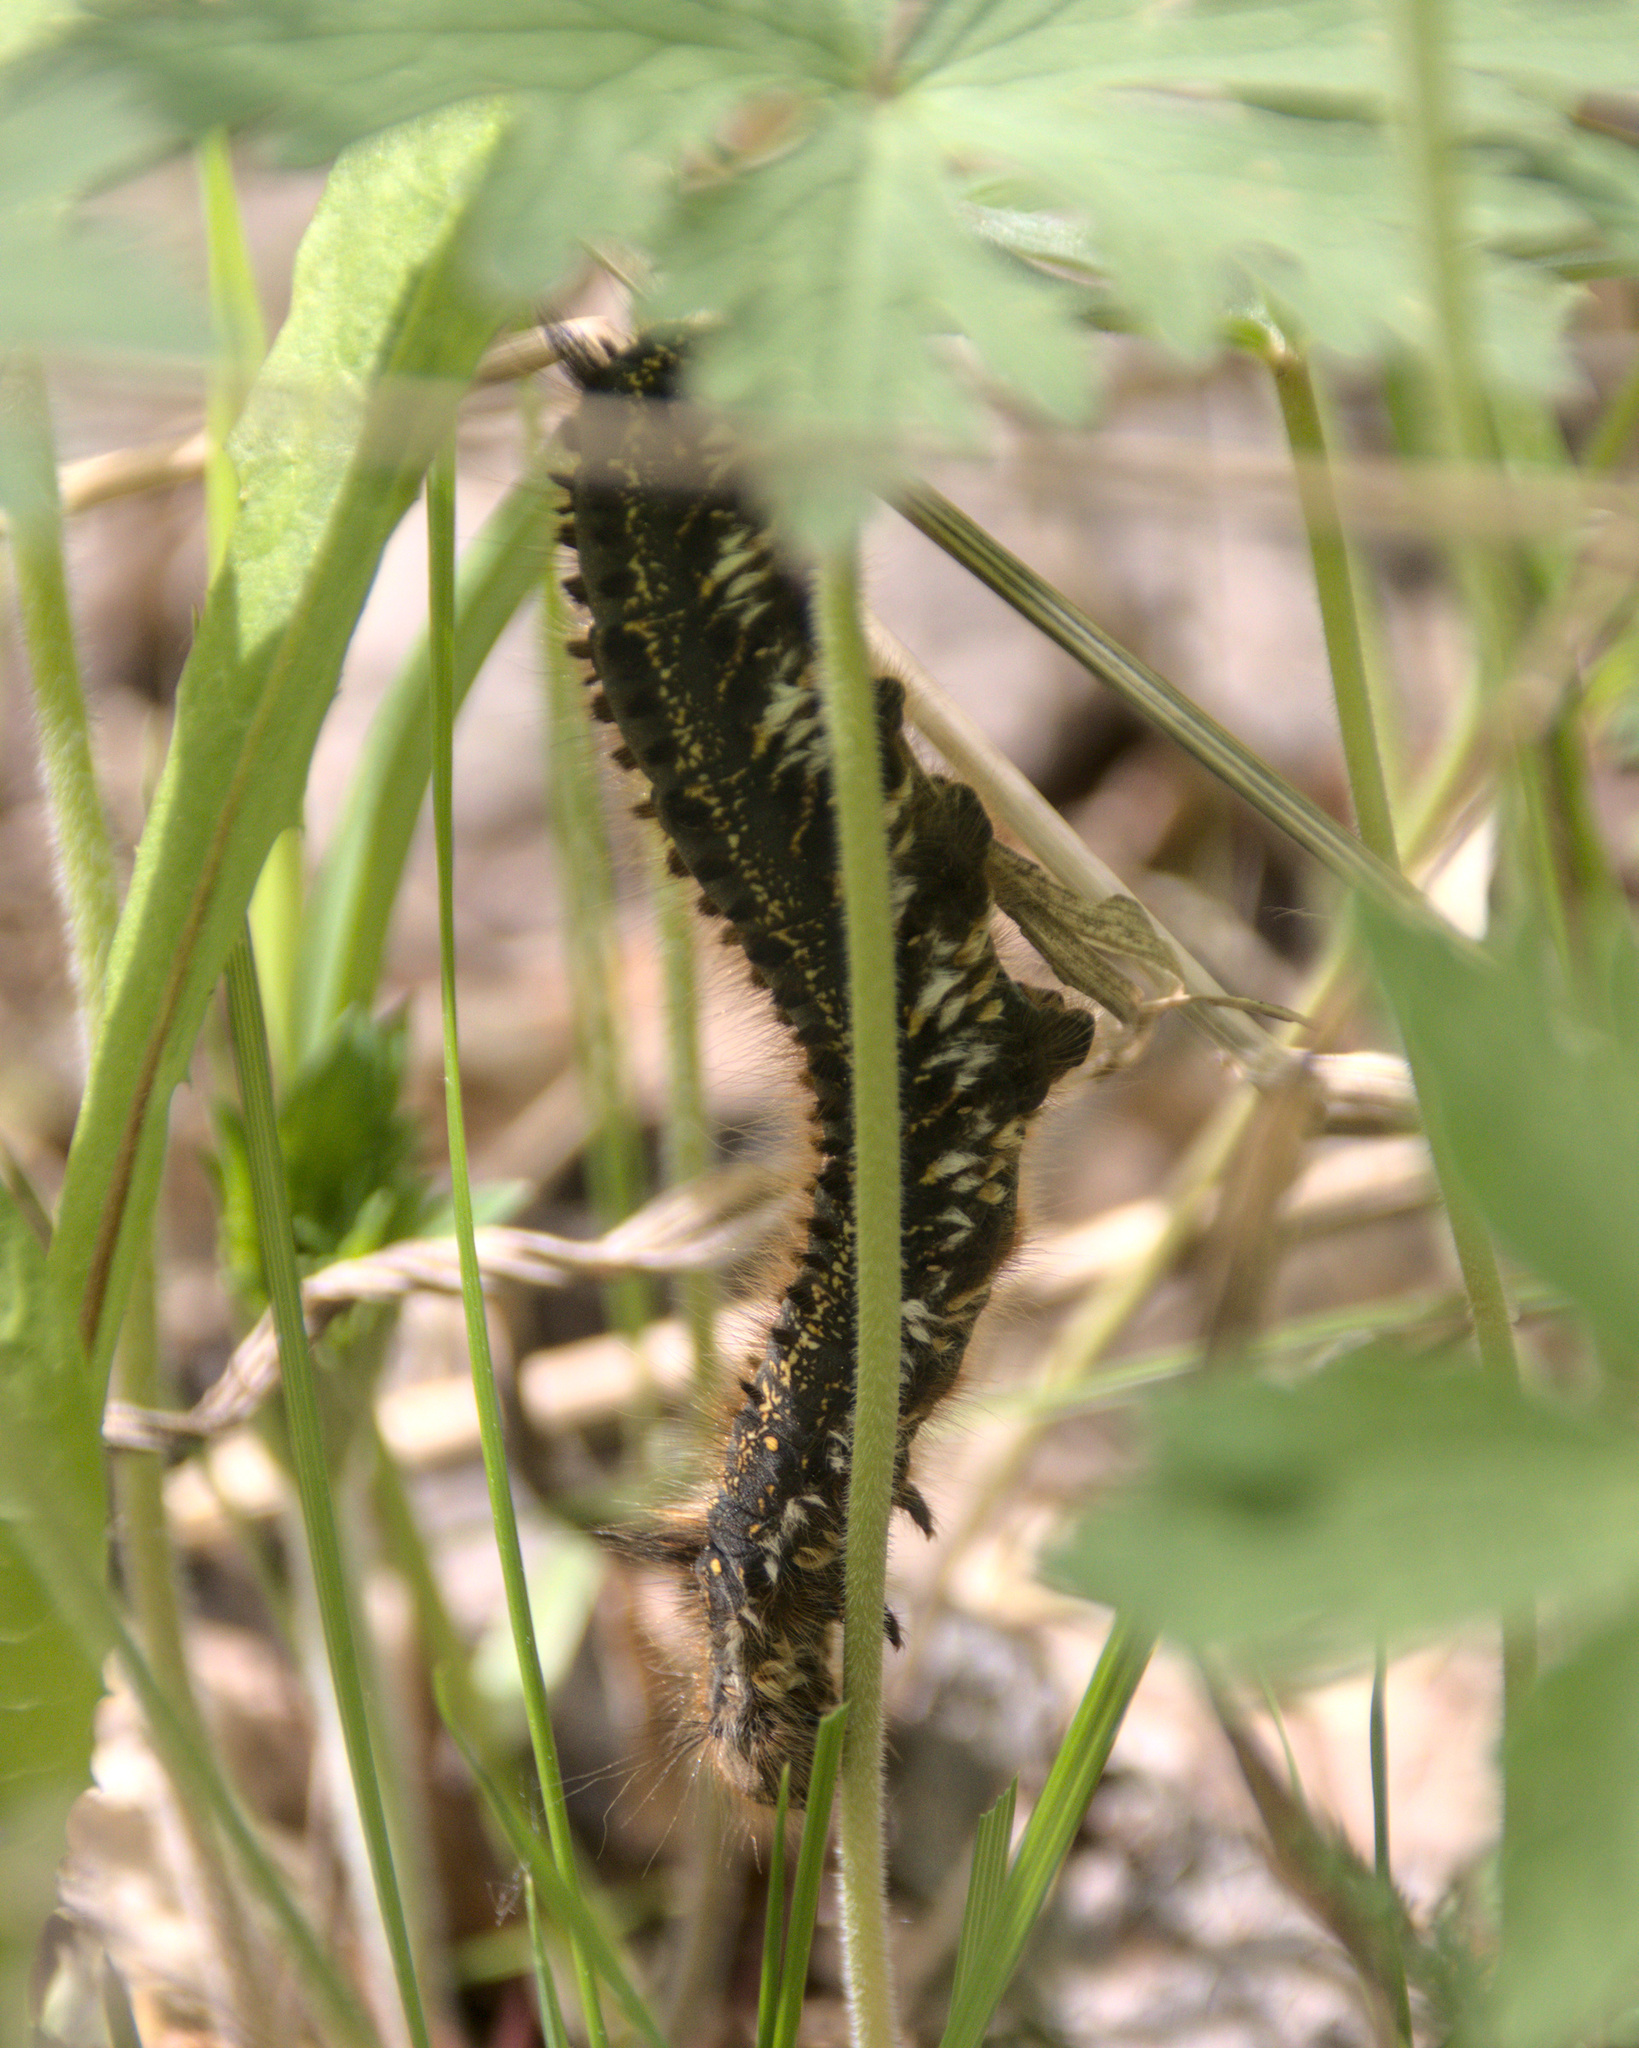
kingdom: Animalia
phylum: Arthropoda
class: Insecta
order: Lepidoptera
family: Lasiocampidae
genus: Euthrix
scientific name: Euthrix potatoria
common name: Drinker
